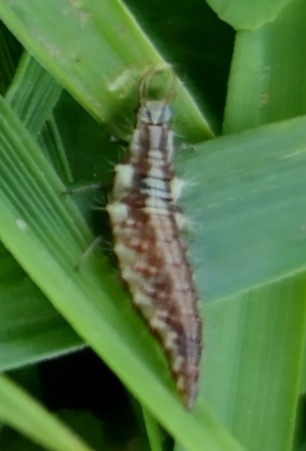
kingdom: Animalia
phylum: Arthropoda
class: Insecta
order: Neuroptera
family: Chrysopidae
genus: Chrysoperla
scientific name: Chrysoperla
